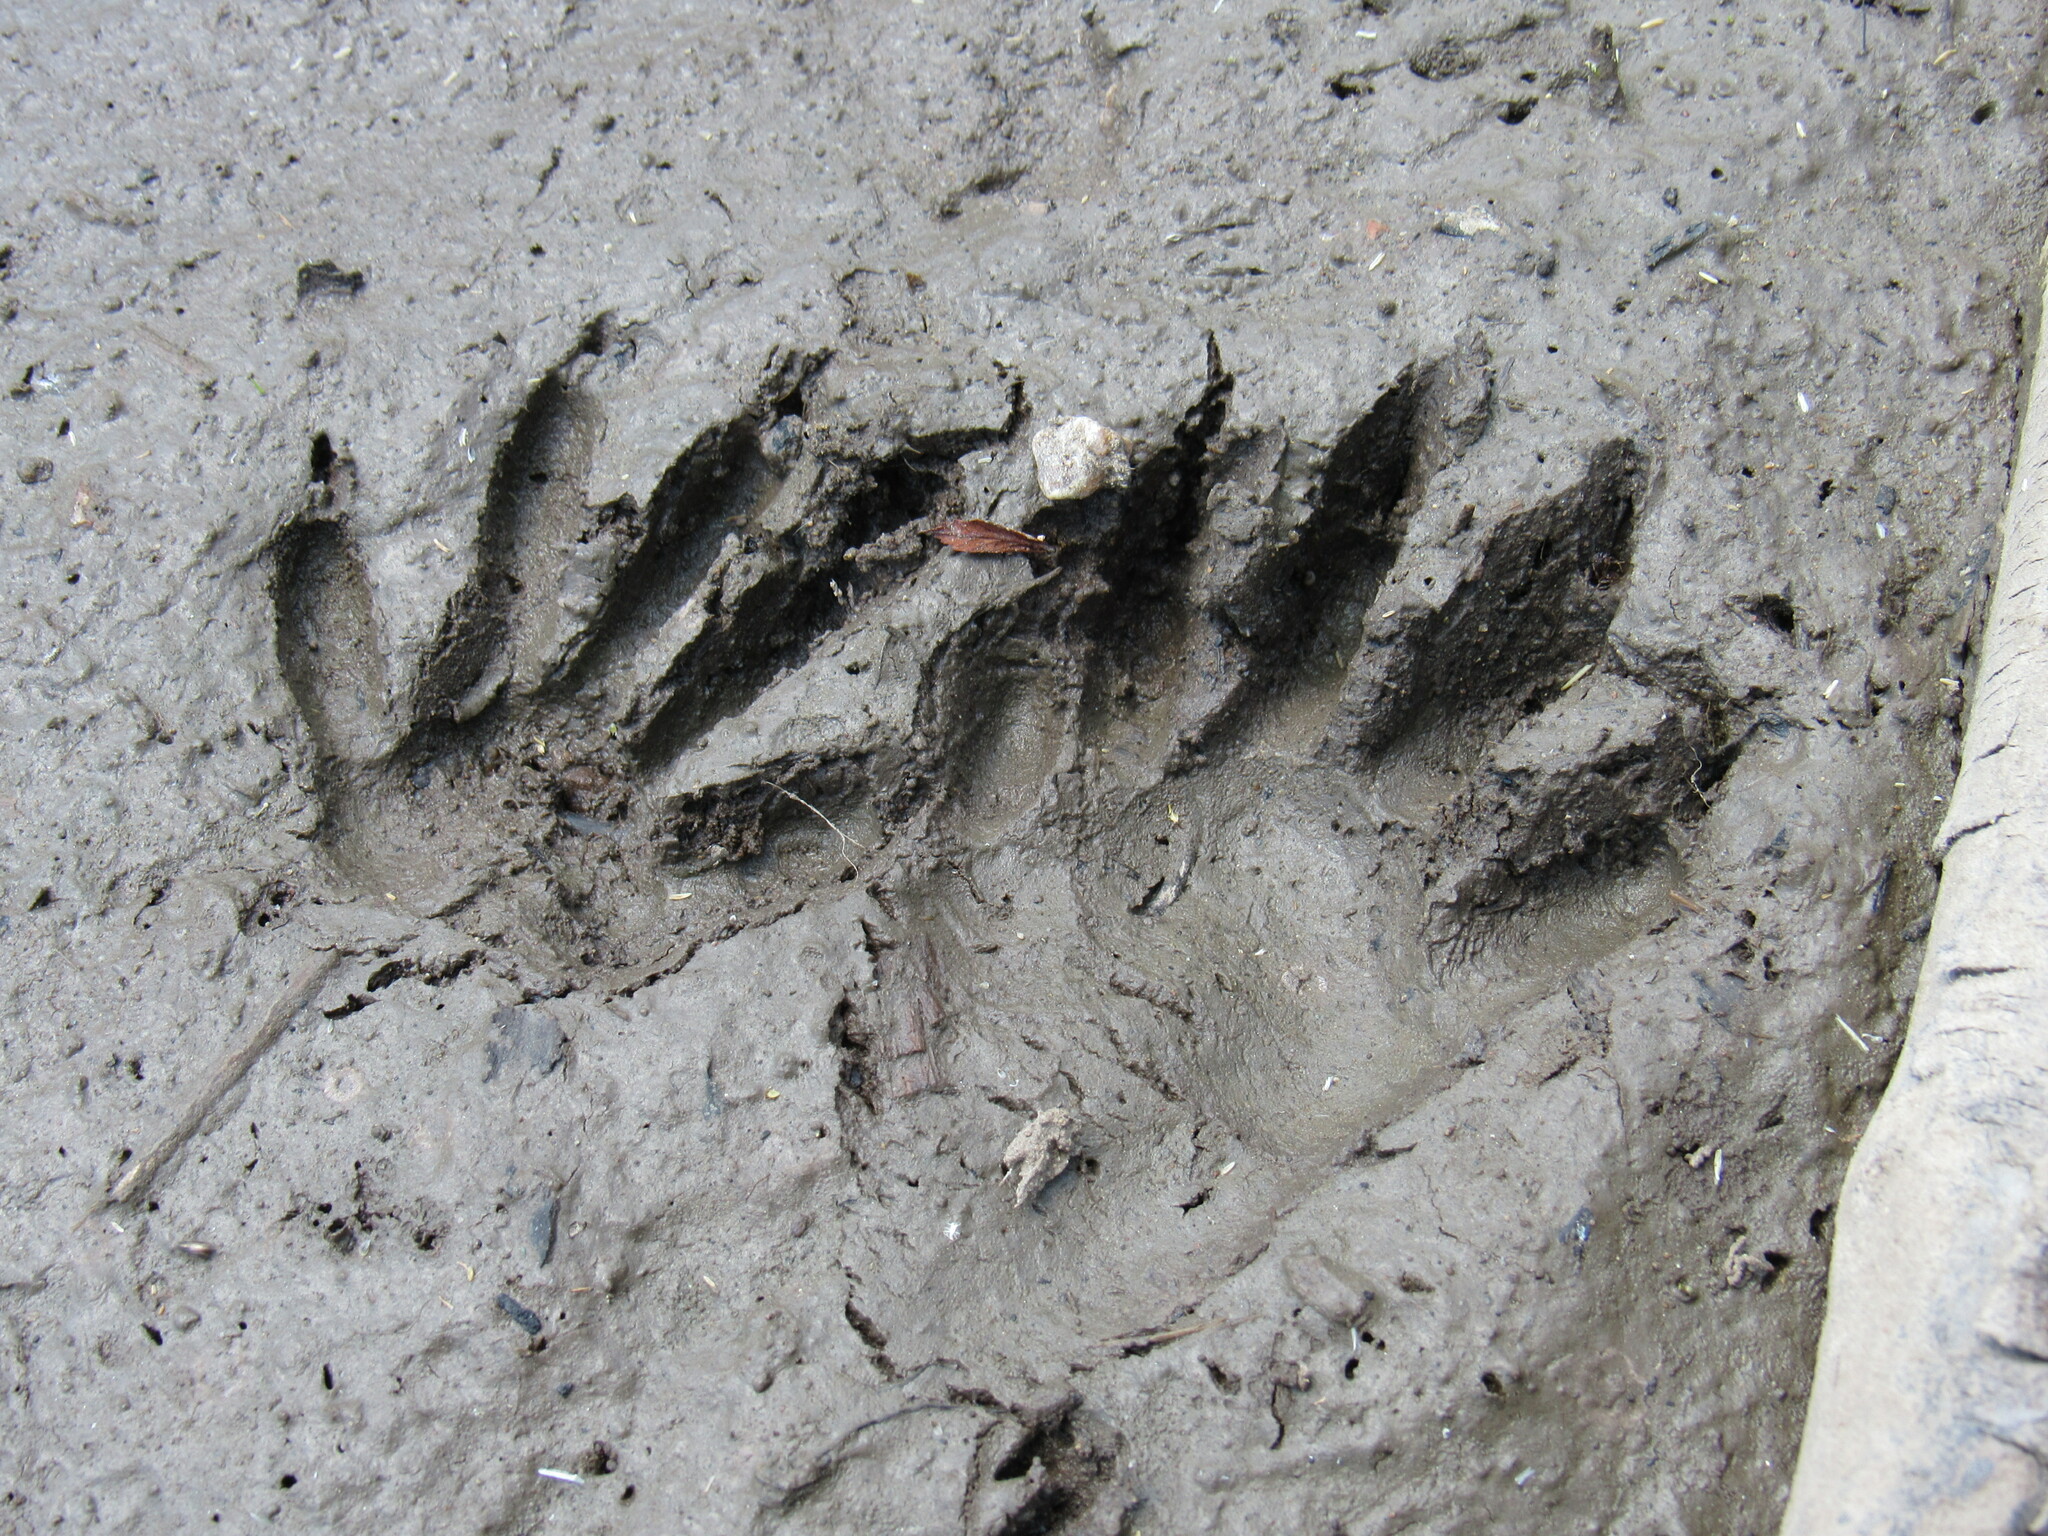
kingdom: Animalia
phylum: Chordata
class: Mammalia
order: Carnivora
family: Procyonidae
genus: Procyon
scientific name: Procyon lotor
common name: Raccoon
